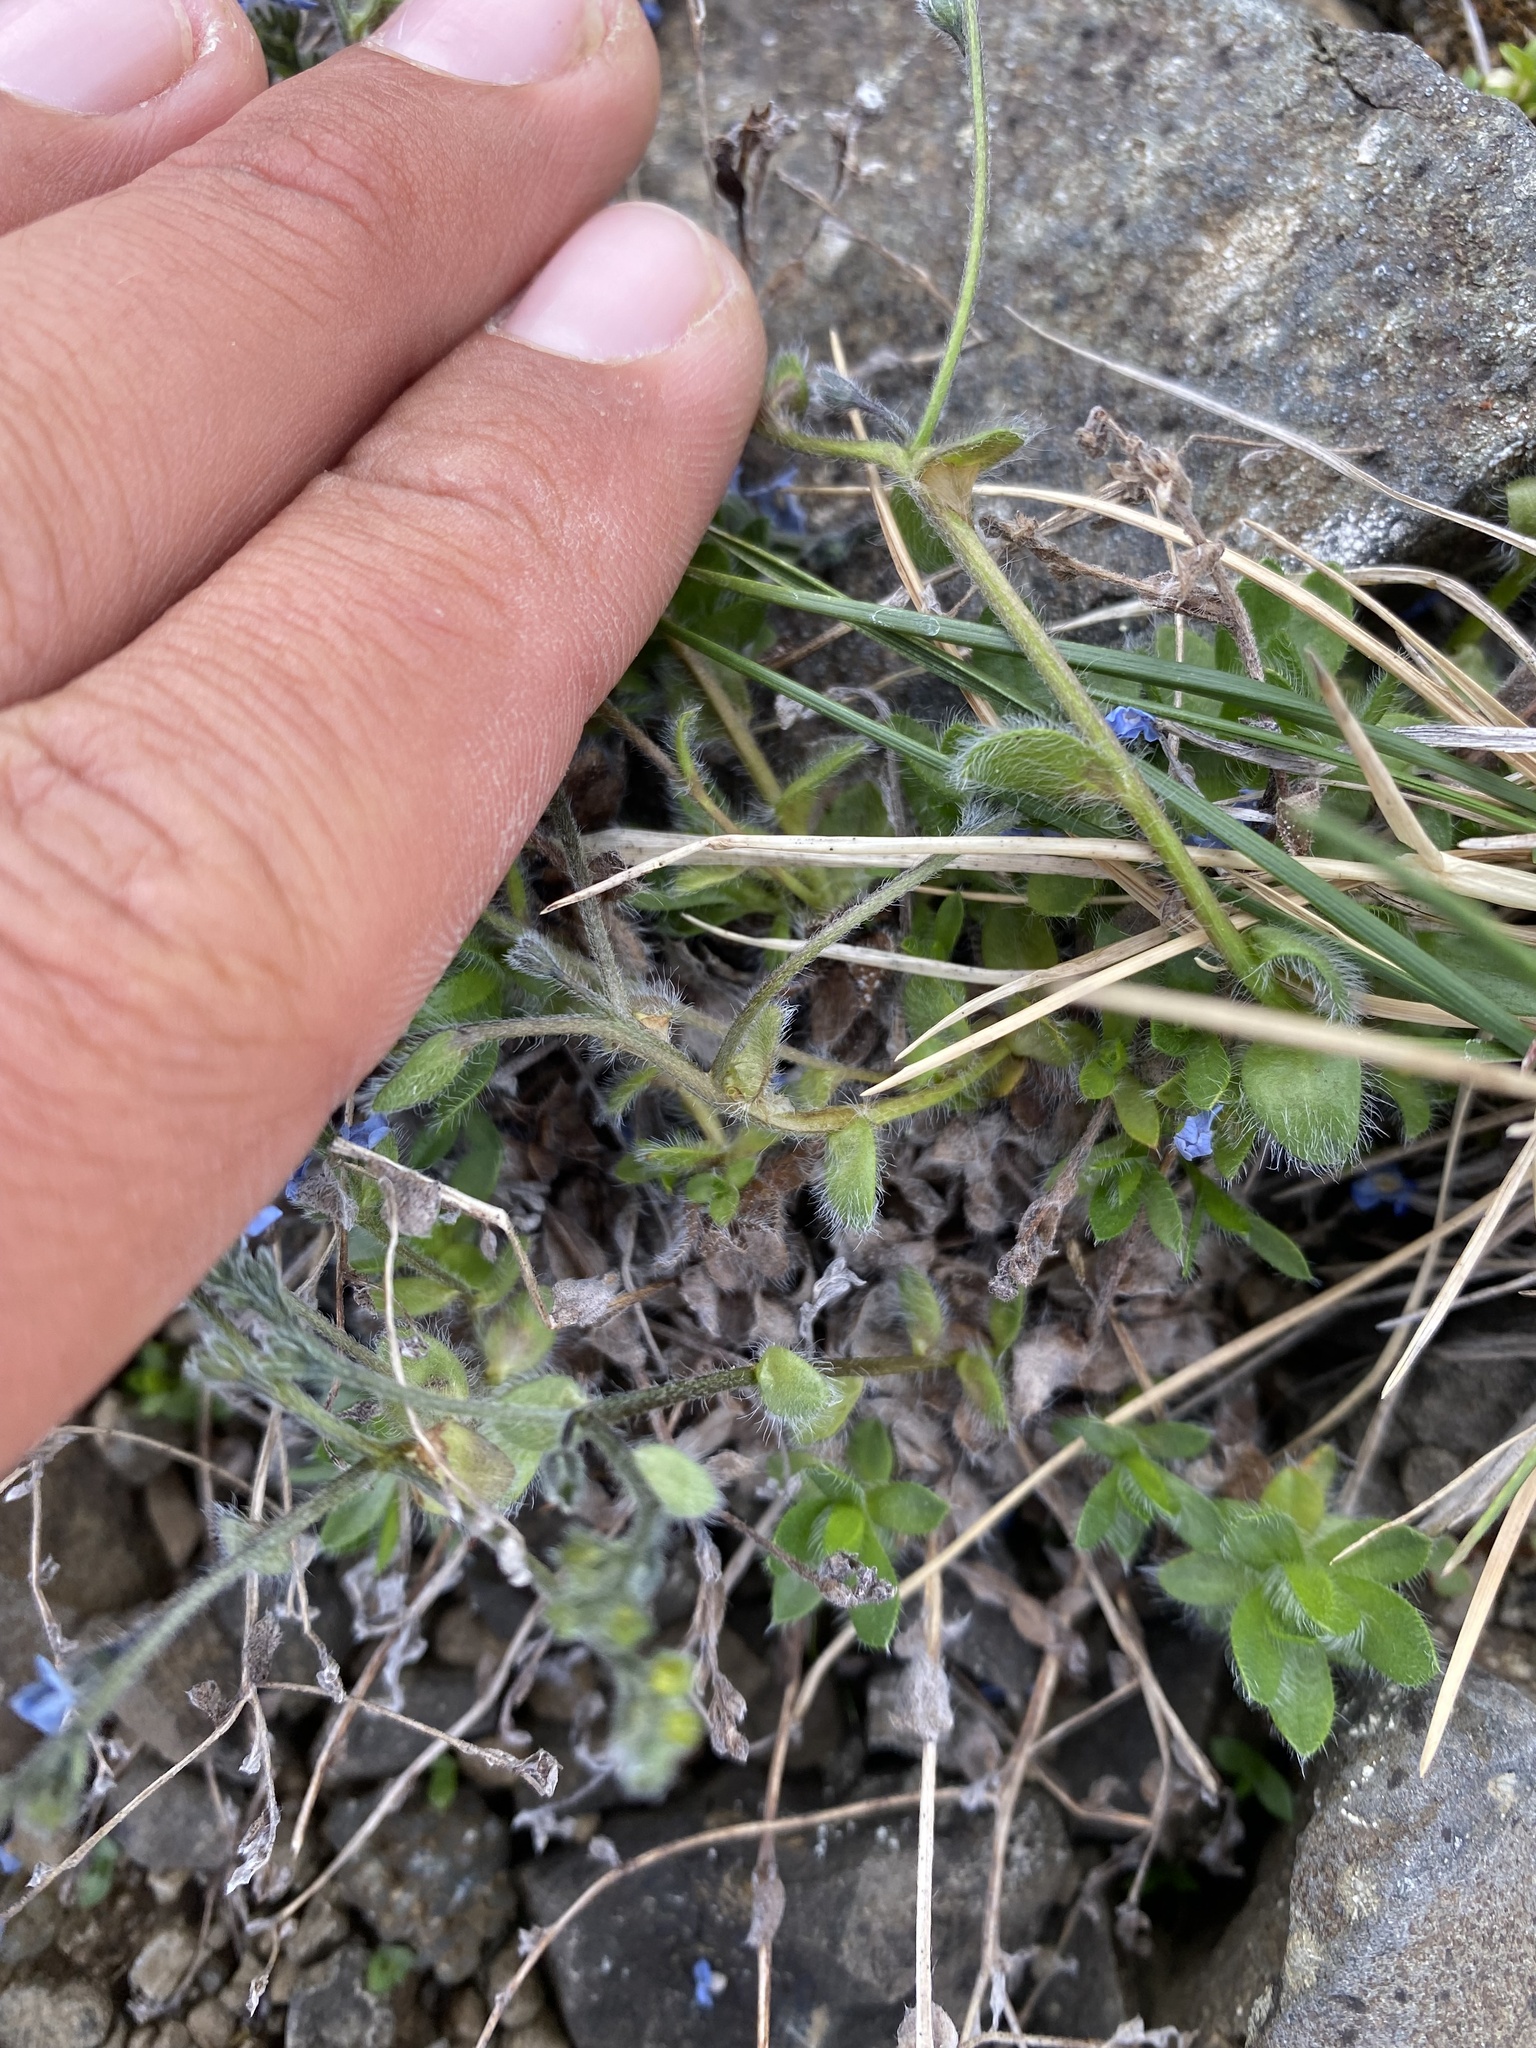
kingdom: Plantae
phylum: Tracheophyta
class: Magnoliopsida
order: Boraginales
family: Boraginaceae
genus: Eritrichium
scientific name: Eritrichium villosum
